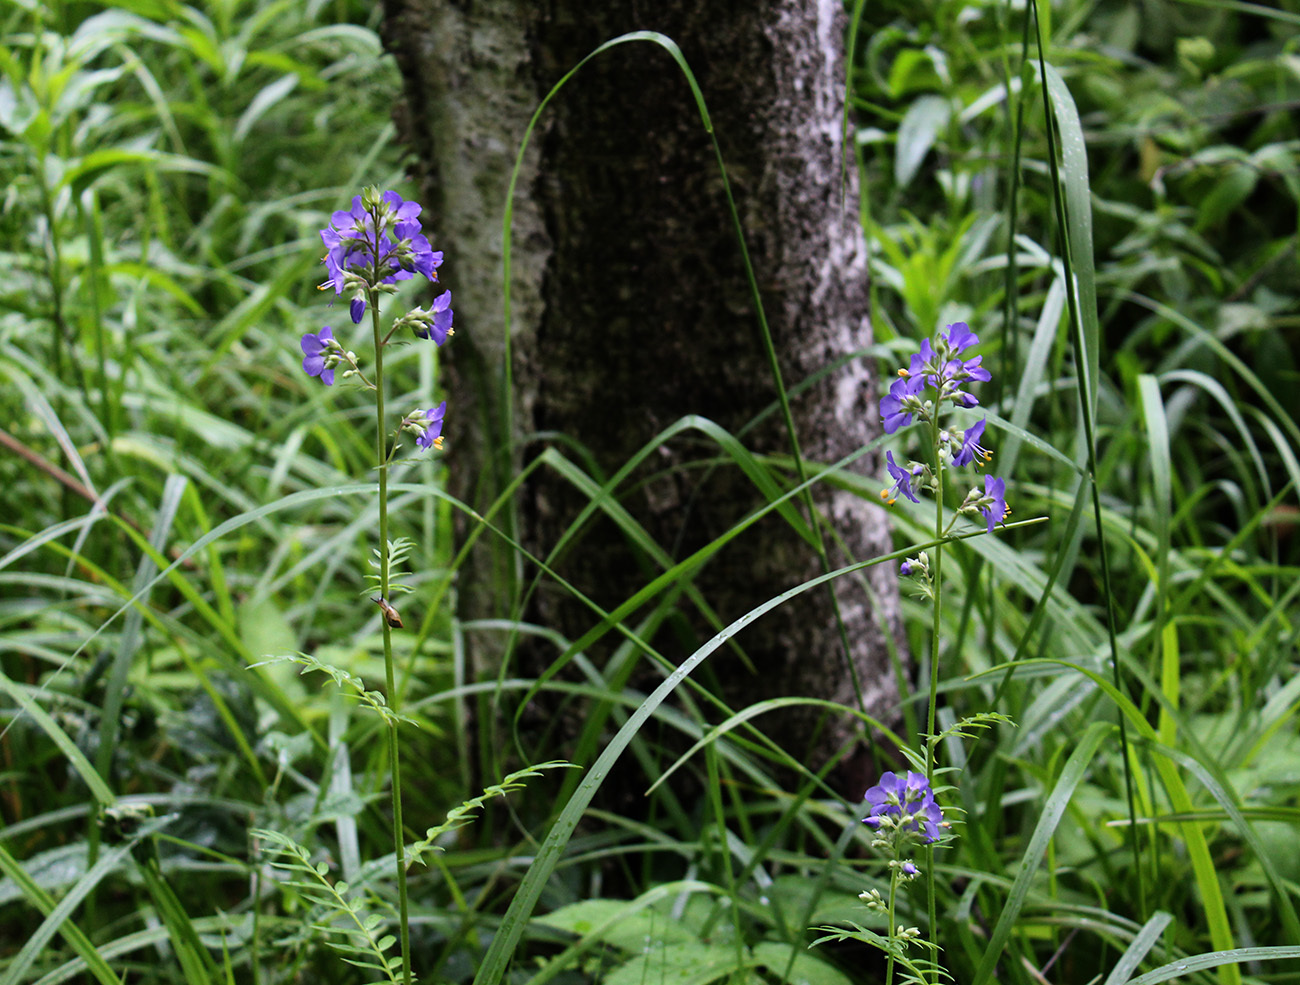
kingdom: Plantae
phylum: Tracheophyta
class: Magnoliopsida
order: Ericales
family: Polemoniaceae
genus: Polemonium
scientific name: Polemonium caeruleum
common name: Jacob's-ladder
